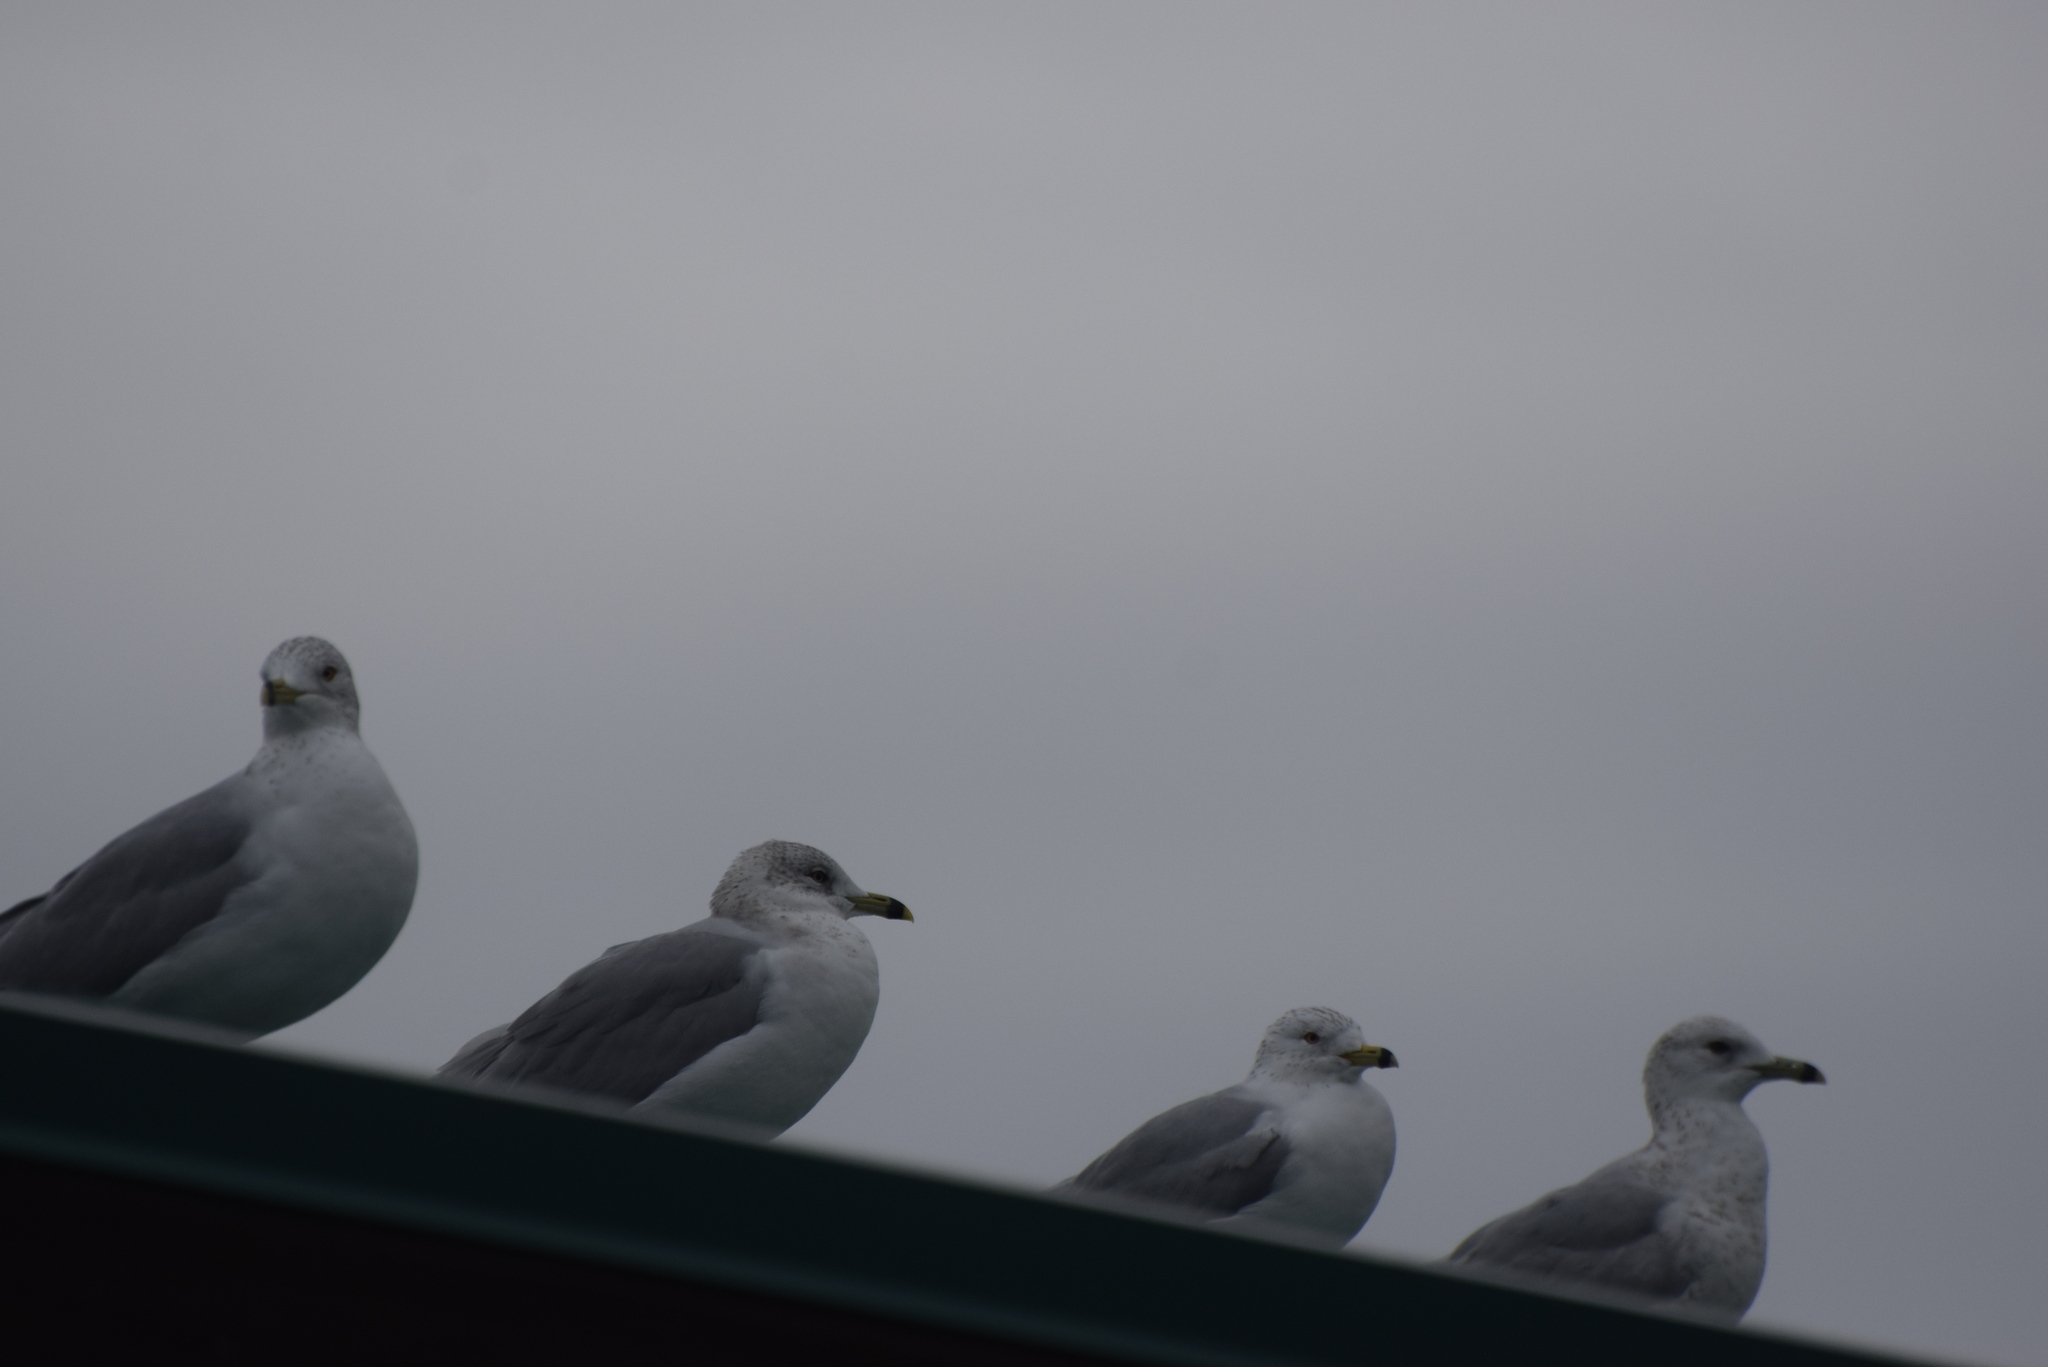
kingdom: Animalia
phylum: Chordata
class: Aves
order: Charadriiformes
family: Laridae
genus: Larus
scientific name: Larus delawarensis
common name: Ring-billed gull
